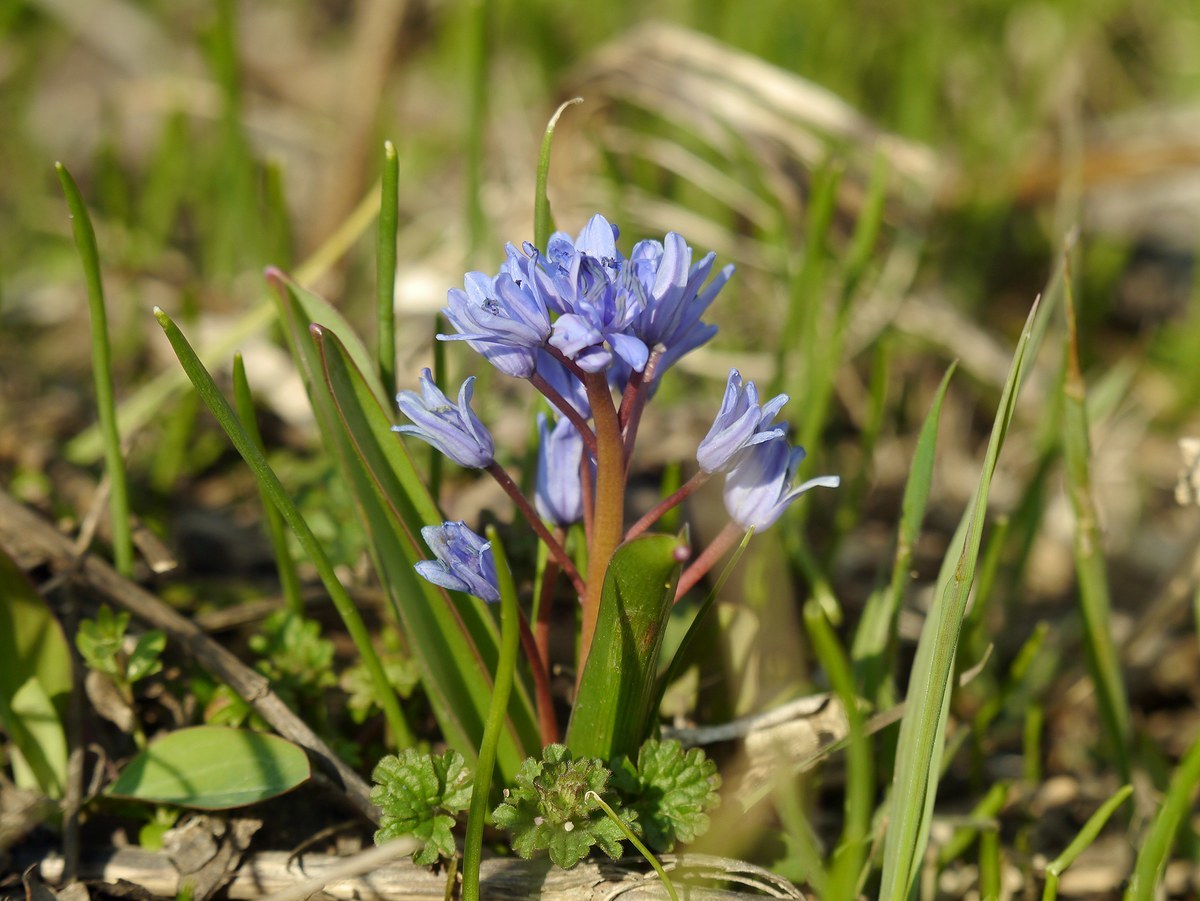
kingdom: Plantae
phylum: Tracheophyta
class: Liliopsida
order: Asparagales
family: Asparagaceae
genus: Scilla
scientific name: Scilla bifolia
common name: Alpine squill
